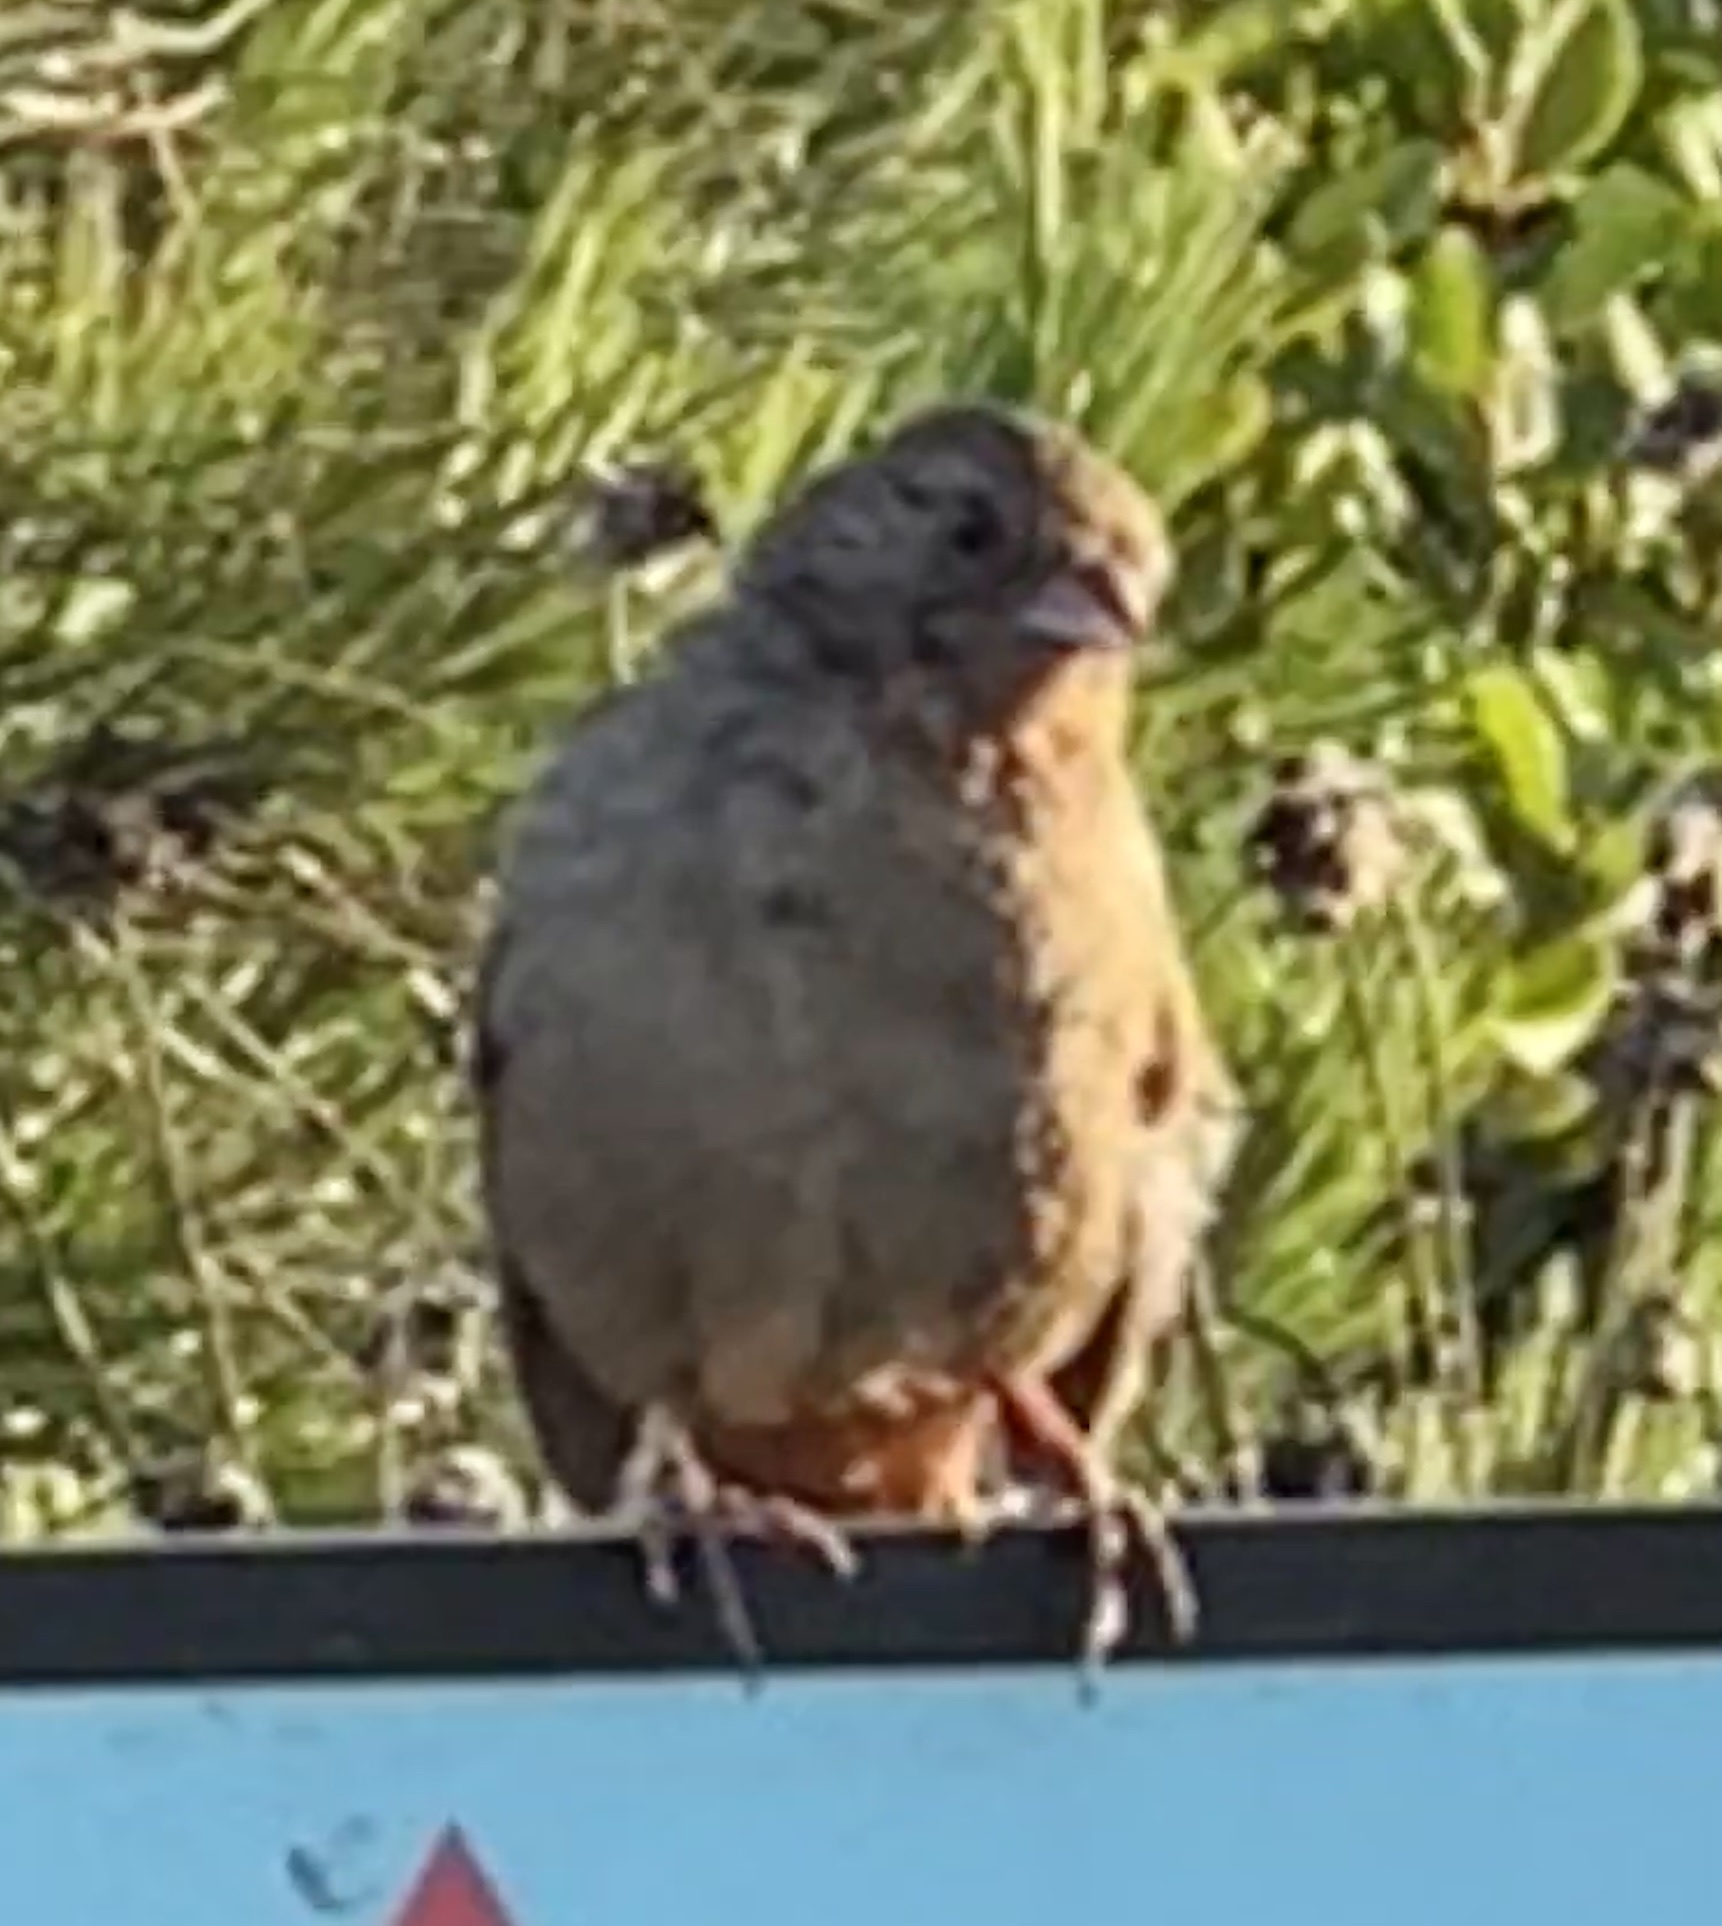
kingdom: Animalia
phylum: Chordata
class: Aves
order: Passeriformes
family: Passerellidae
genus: Melozone
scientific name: Melozone crissalis
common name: California towhee
